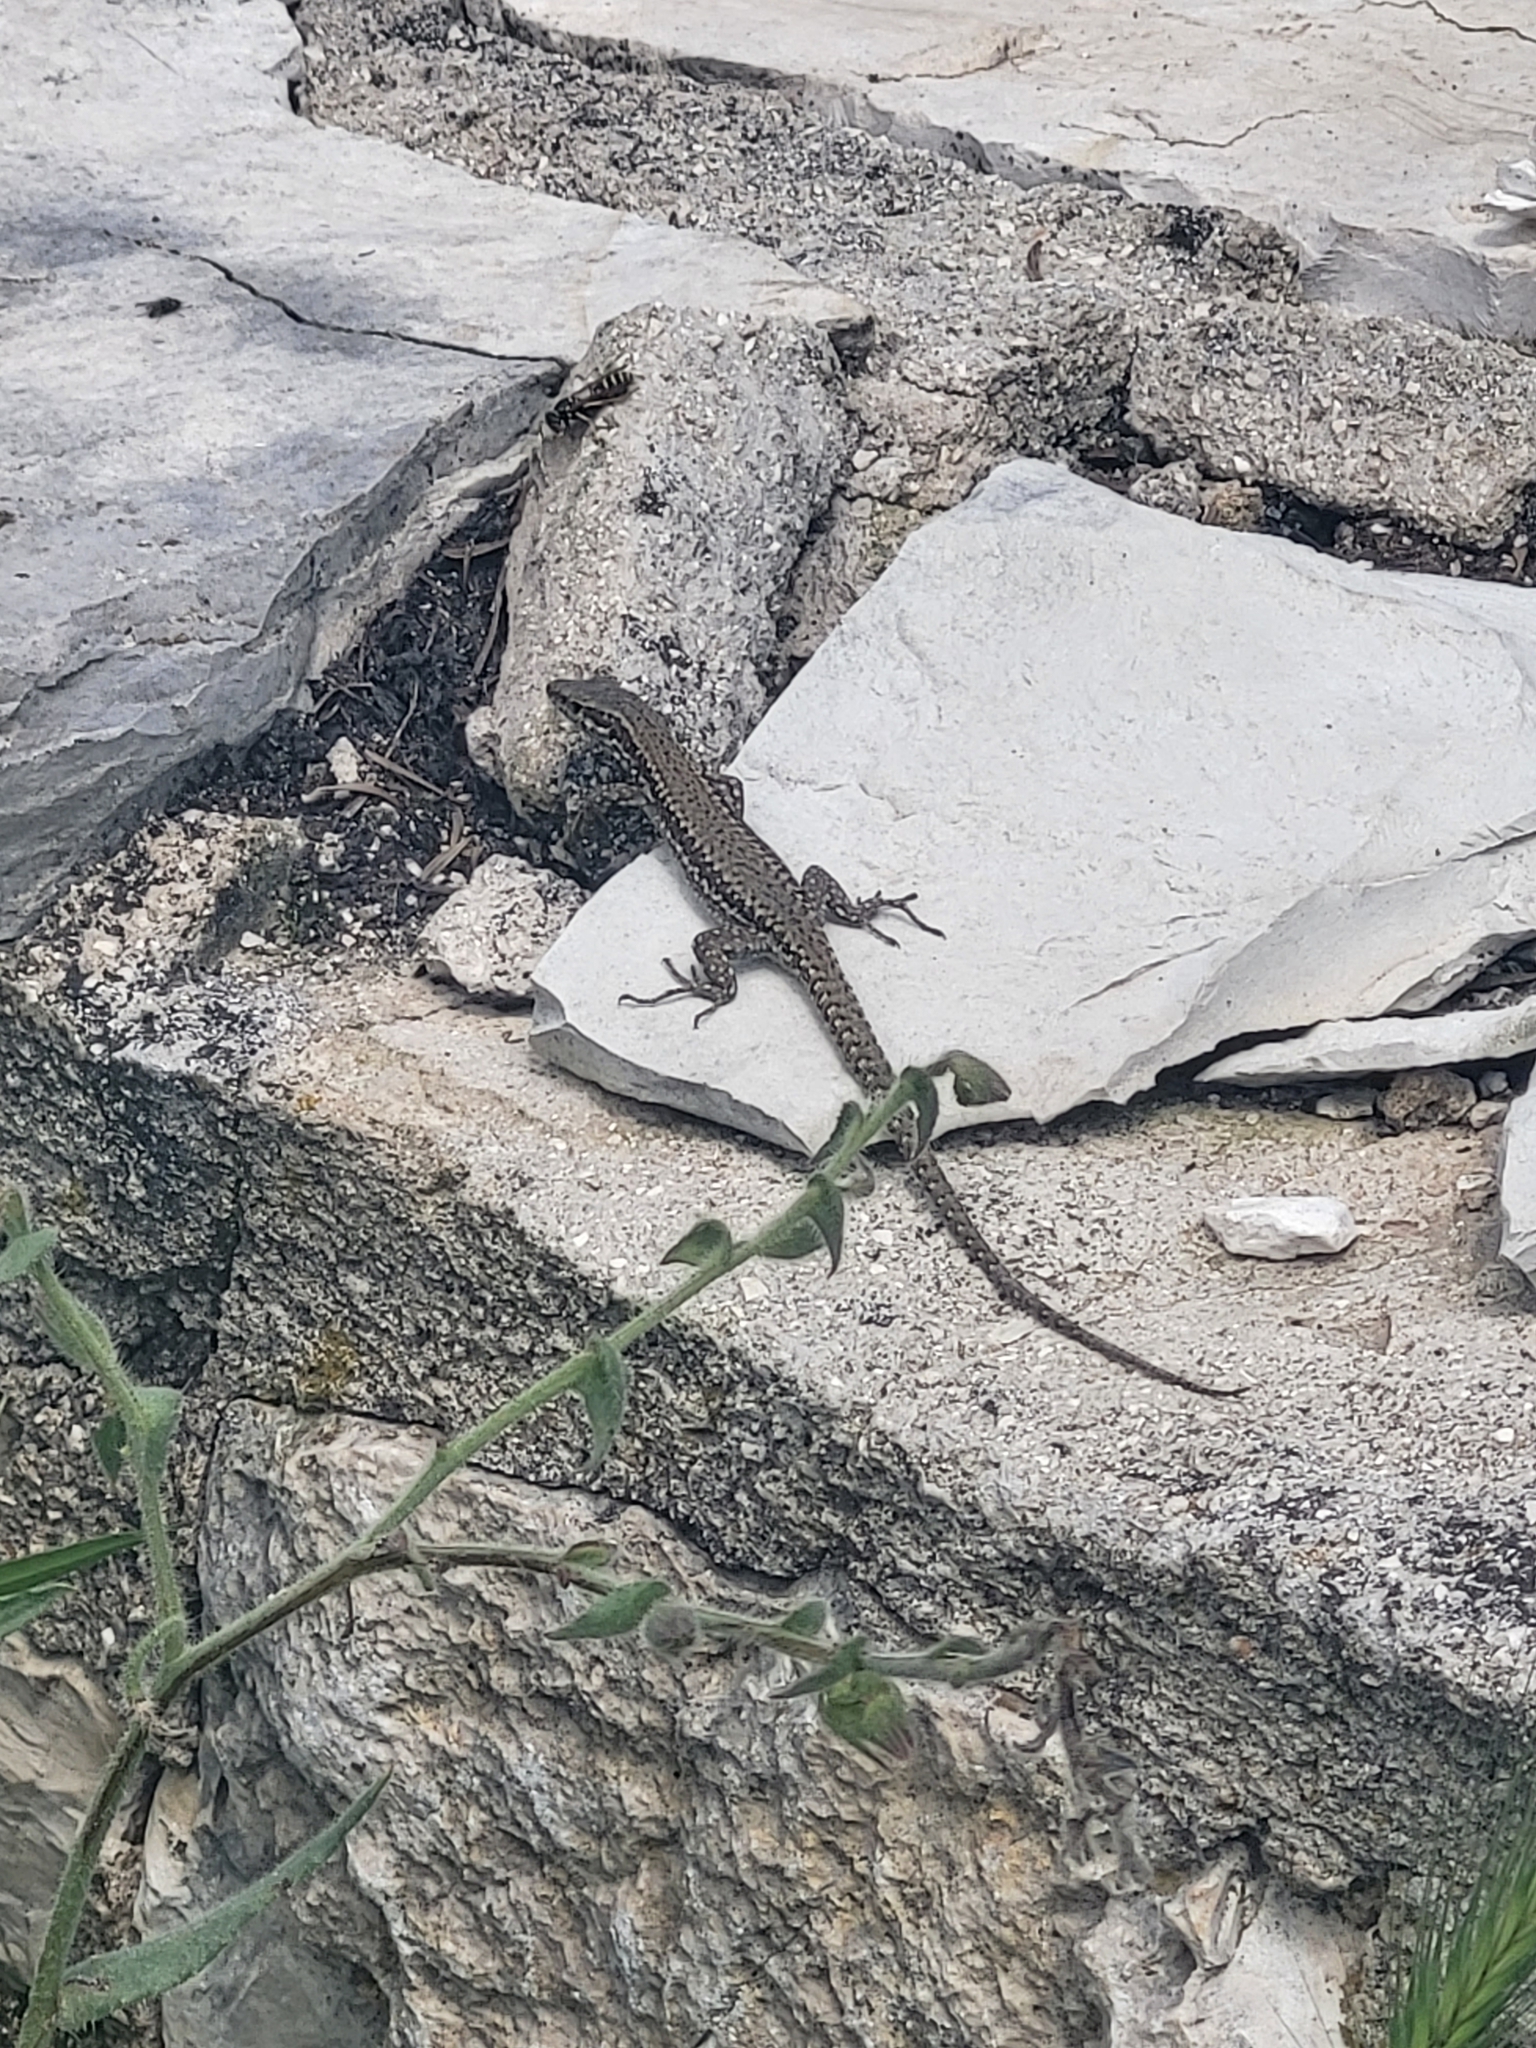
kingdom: Animalia
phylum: Chordata
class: Squamata
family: Lacertidae
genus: Podarcis
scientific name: Podarcis muralis
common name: Common wall lizard
